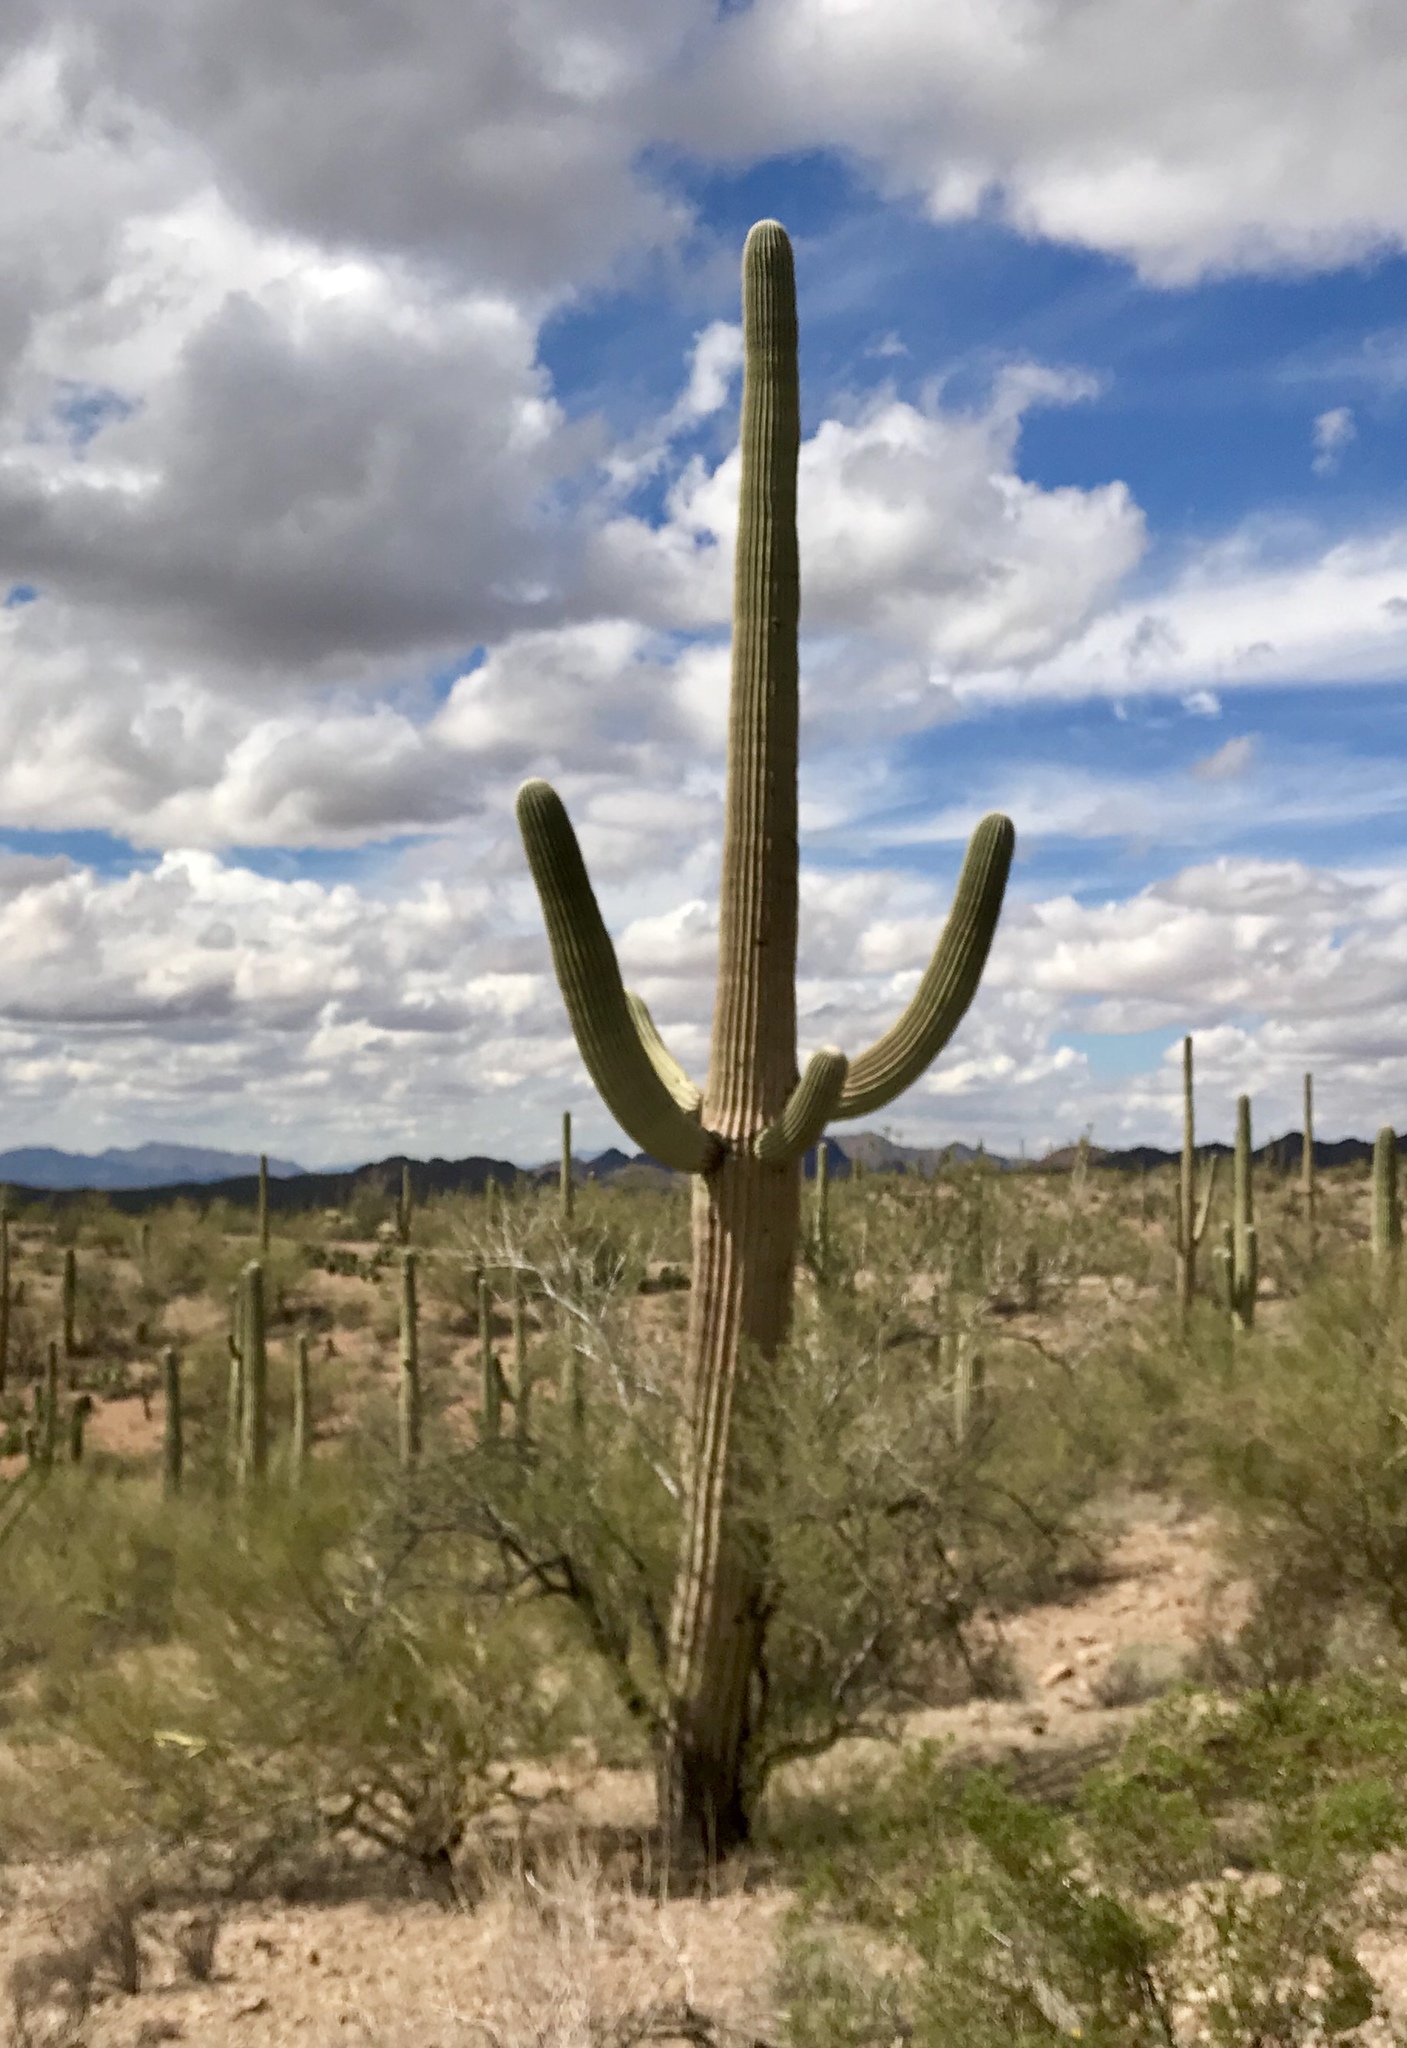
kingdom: Plantae
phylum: Tracheophyta
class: Magnoliopsida
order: Caryophyllales
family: Cactaceae
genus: Carnegiea
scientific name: Carnegiea gigantea
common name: Saguaro
